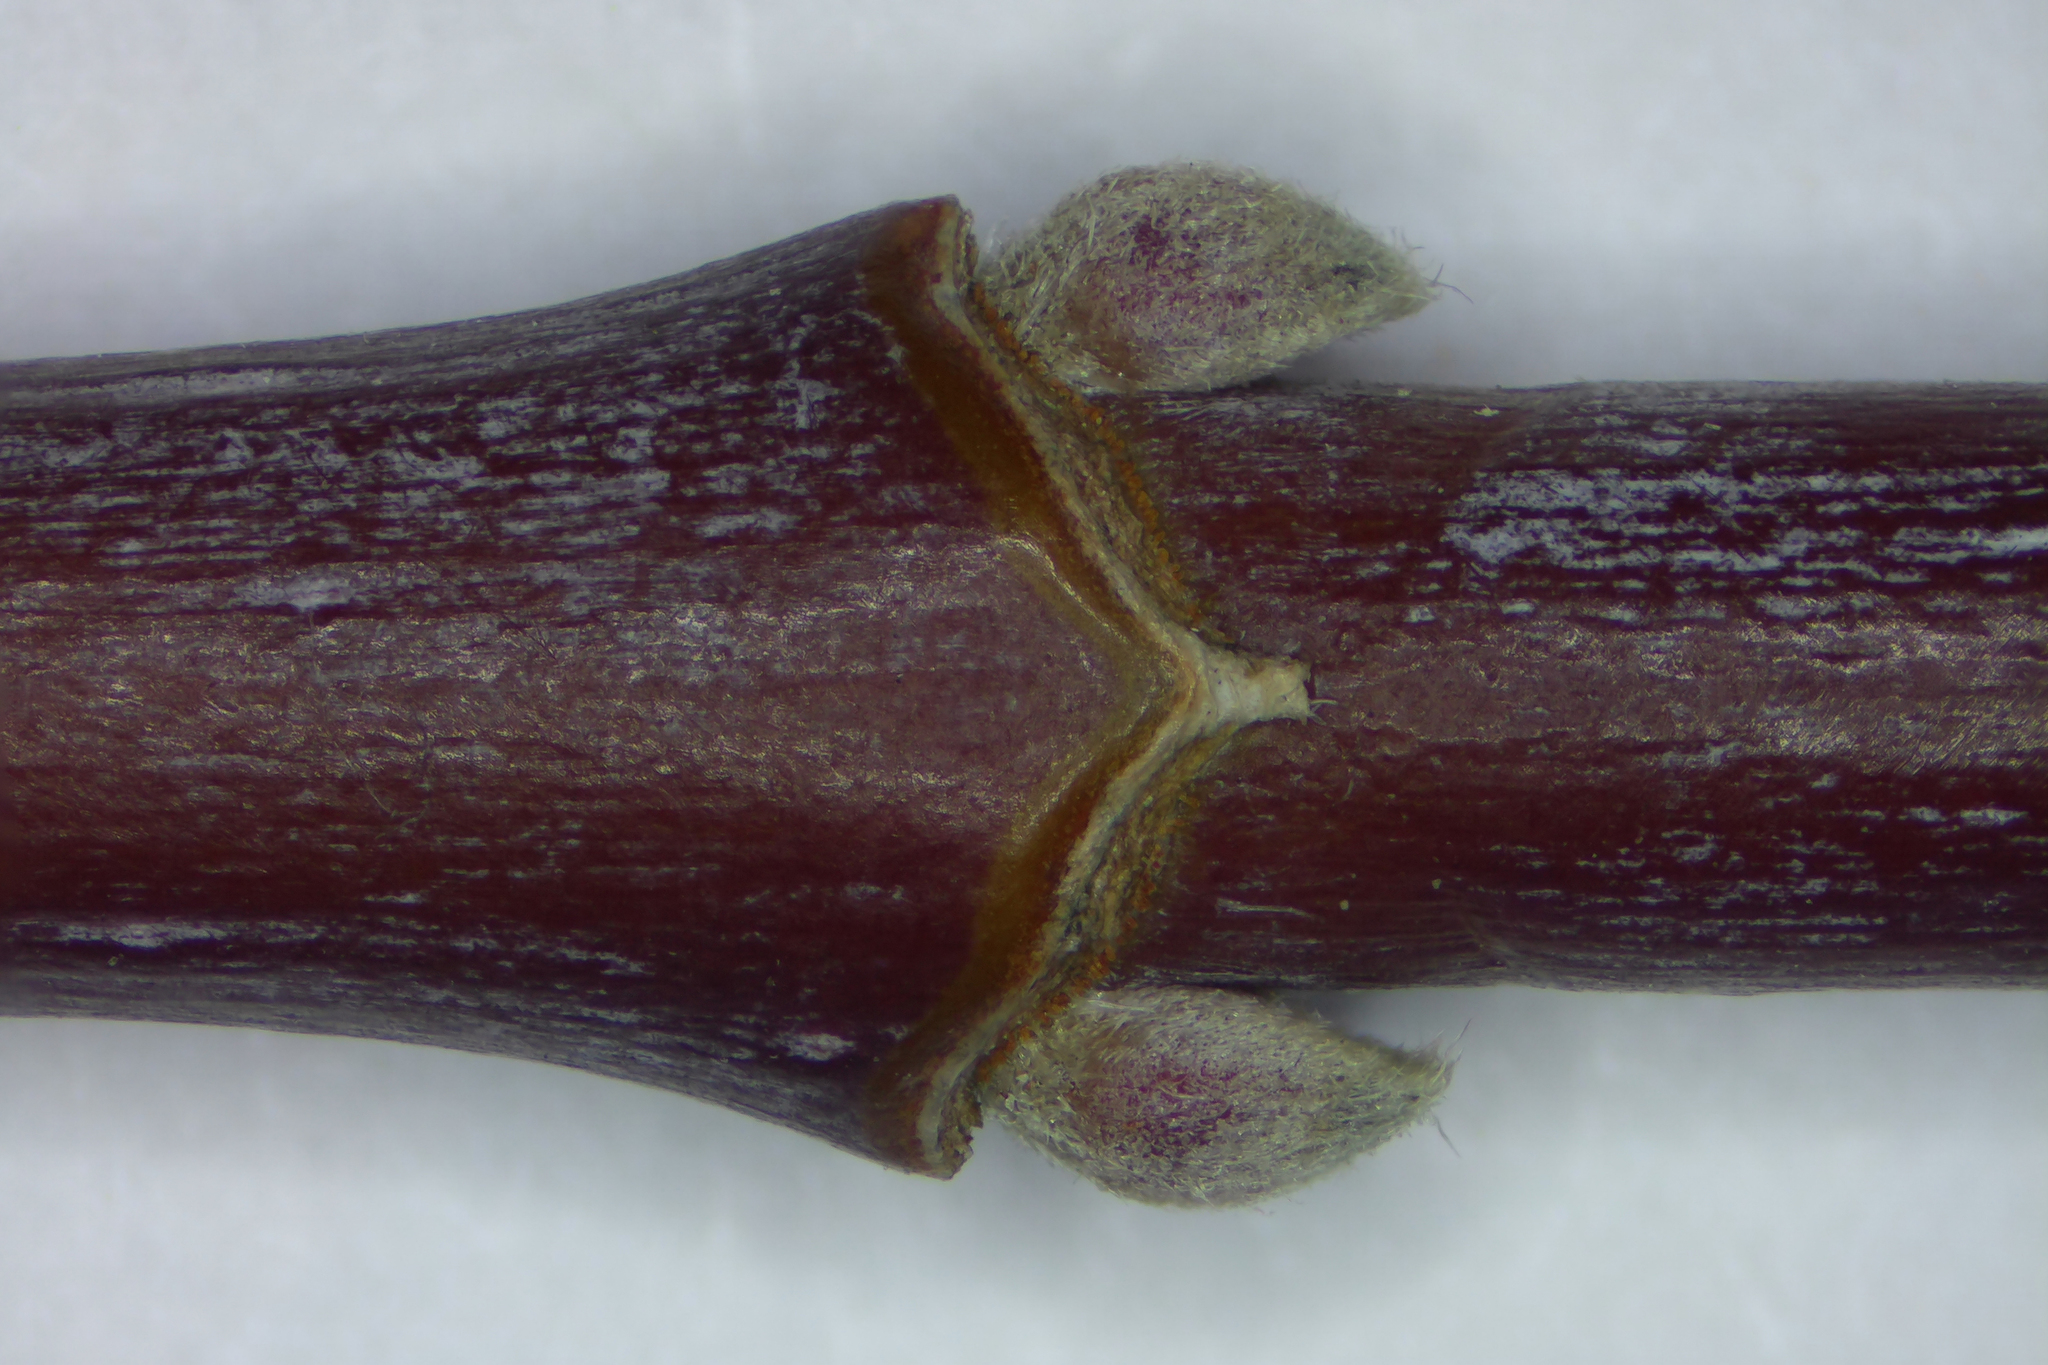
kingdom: Plantae
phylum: Tracheophyta
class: Magnoliopsida
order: Sapindales
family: Sapindaceae
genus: Acer
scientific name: Acer negundo
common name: Ashleaf maple
